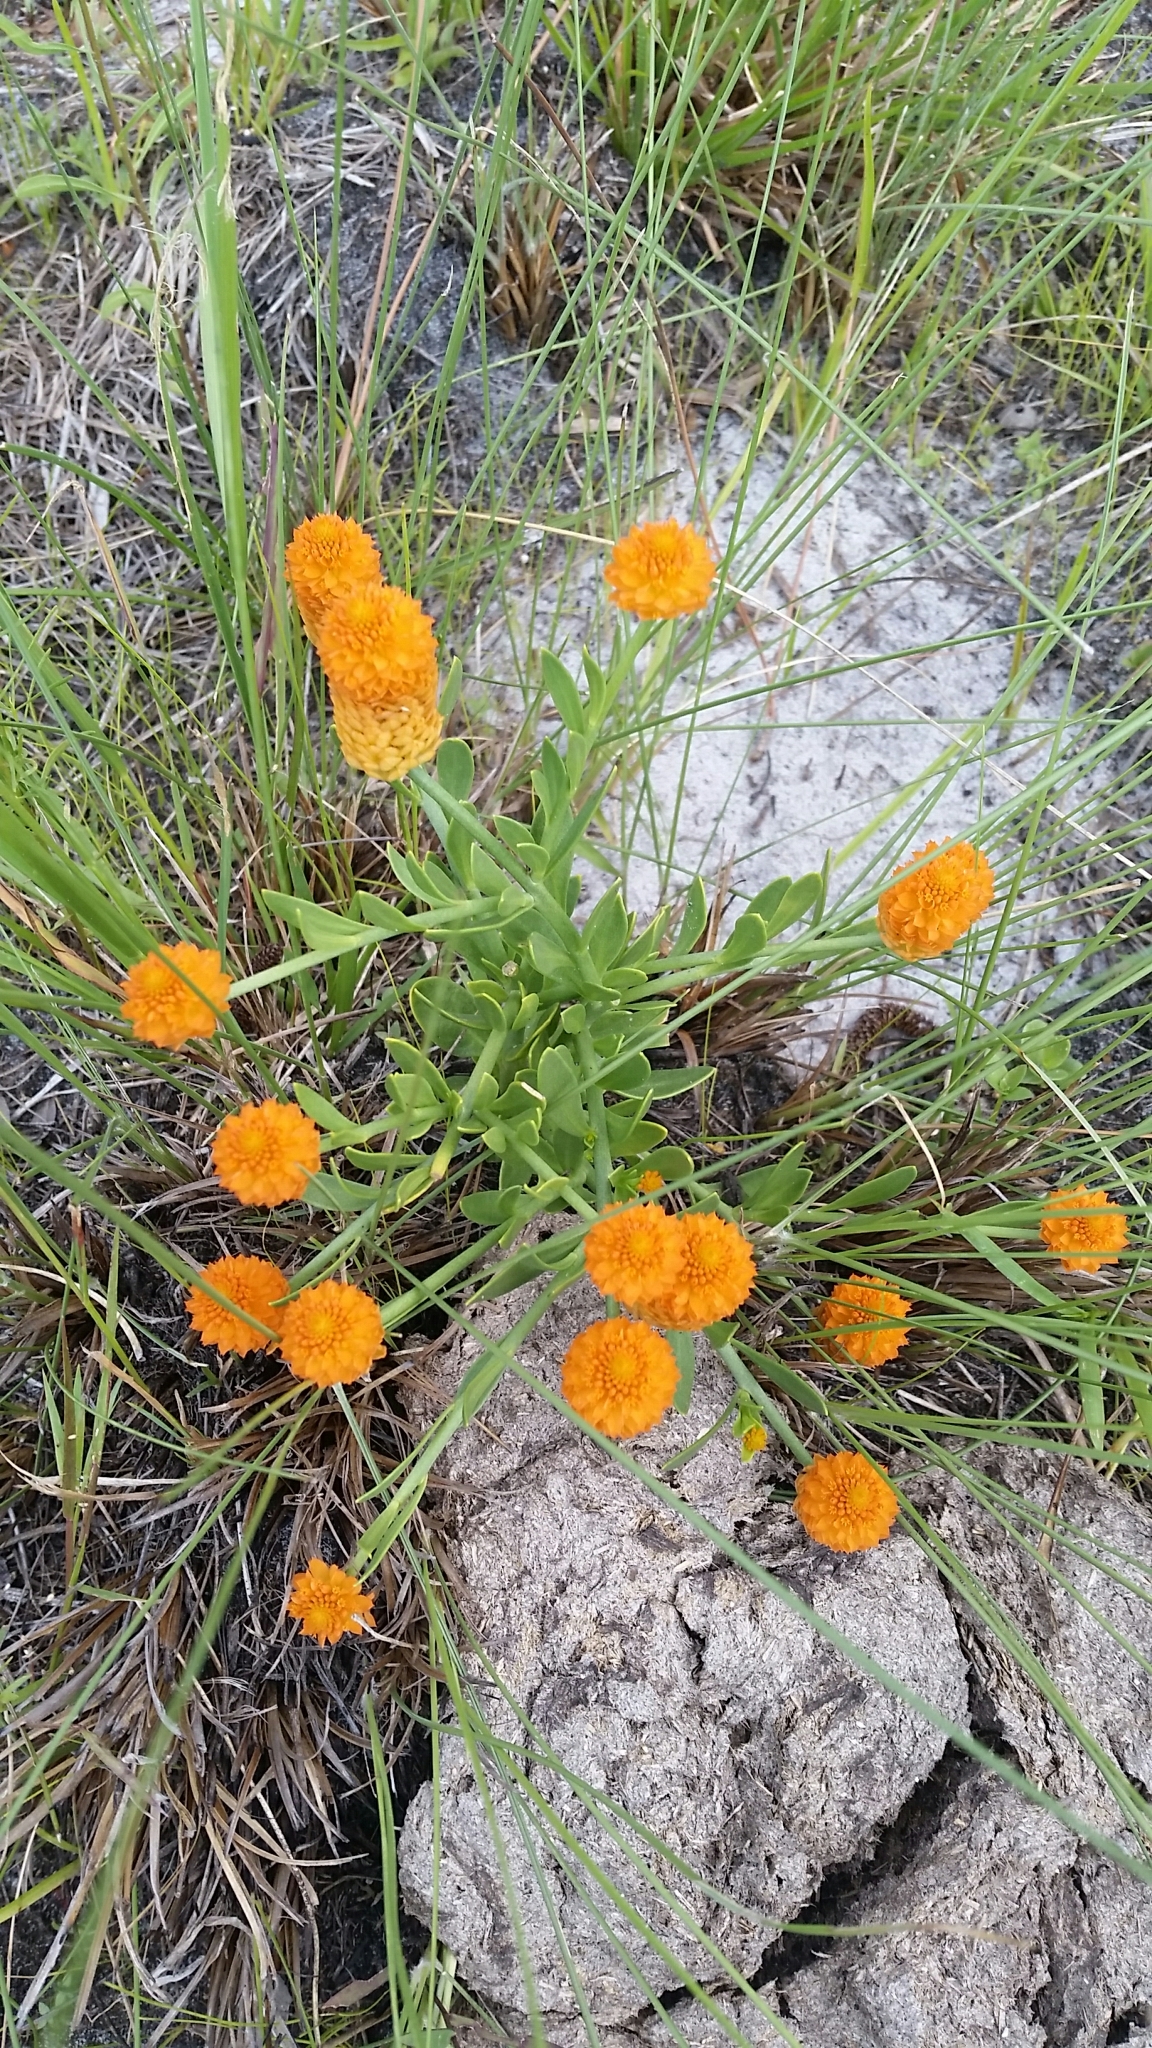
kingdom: Plantae
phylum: Tracheophyta
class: Magnoliopsida
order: Fabales
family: Polygalaceae
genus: Polygala
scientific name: Polygala lutea
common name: Orange milkwort
